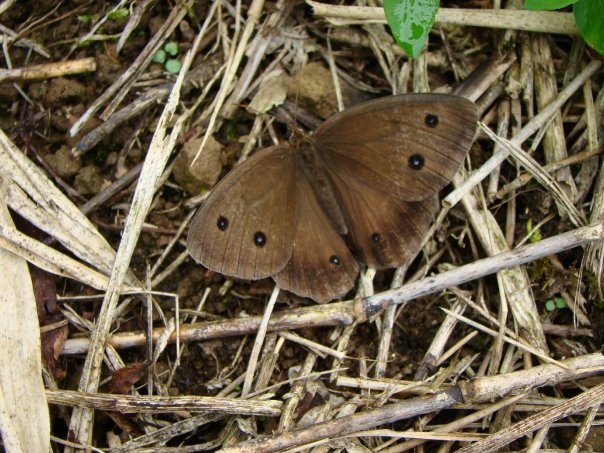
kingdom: Animalia
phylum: Arthropoda
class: Insecta
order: Lepidoptera
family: Nymphalidae
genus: Minois
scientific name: Minois dryas
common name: Dryad
